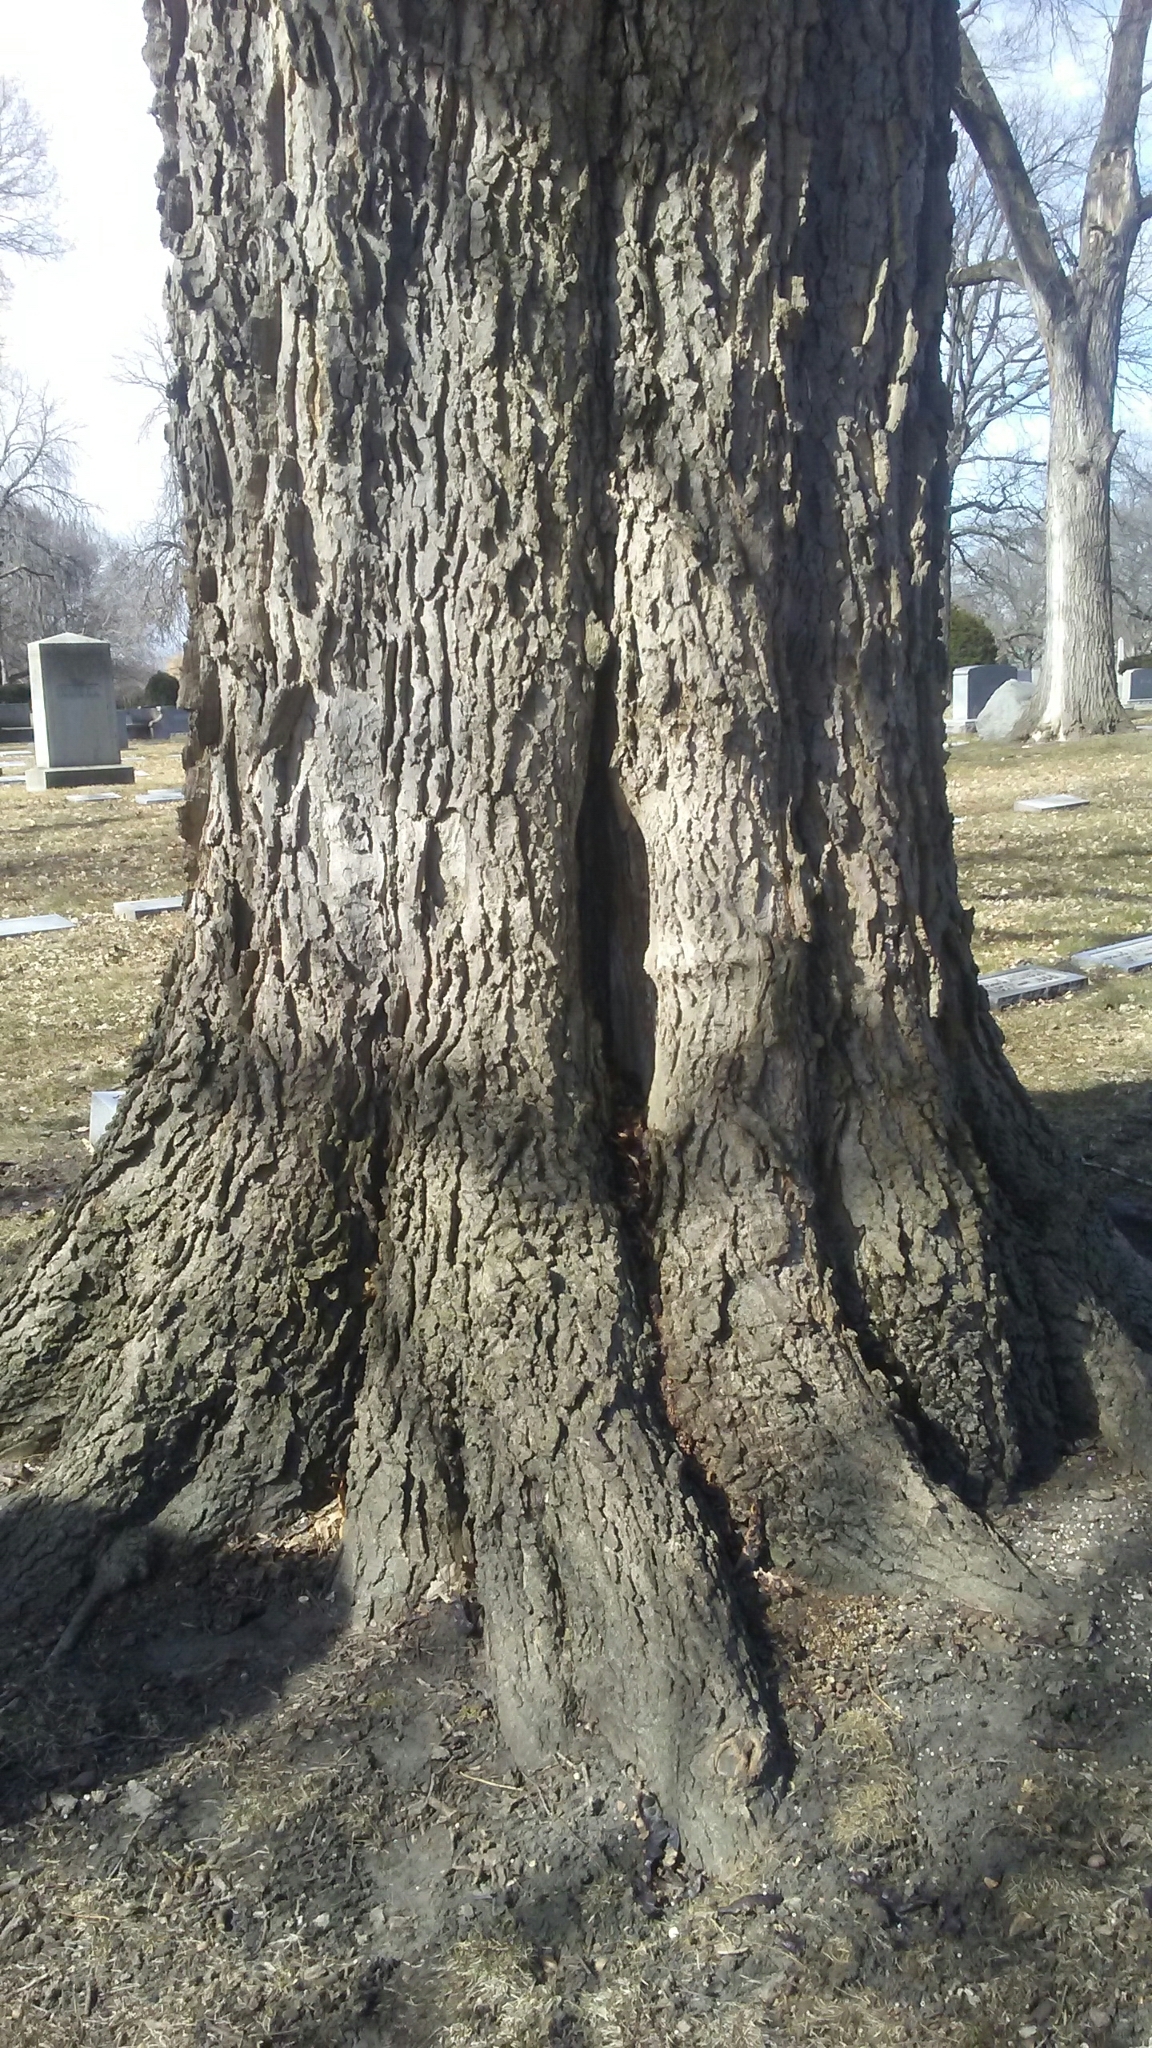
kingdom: Plantae
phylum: Tracheophyta
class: Magnoliopsida
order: Rosales
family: Cannabaceae
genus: Celtis
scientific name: Celtis occidentalis
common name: Common hackberry
